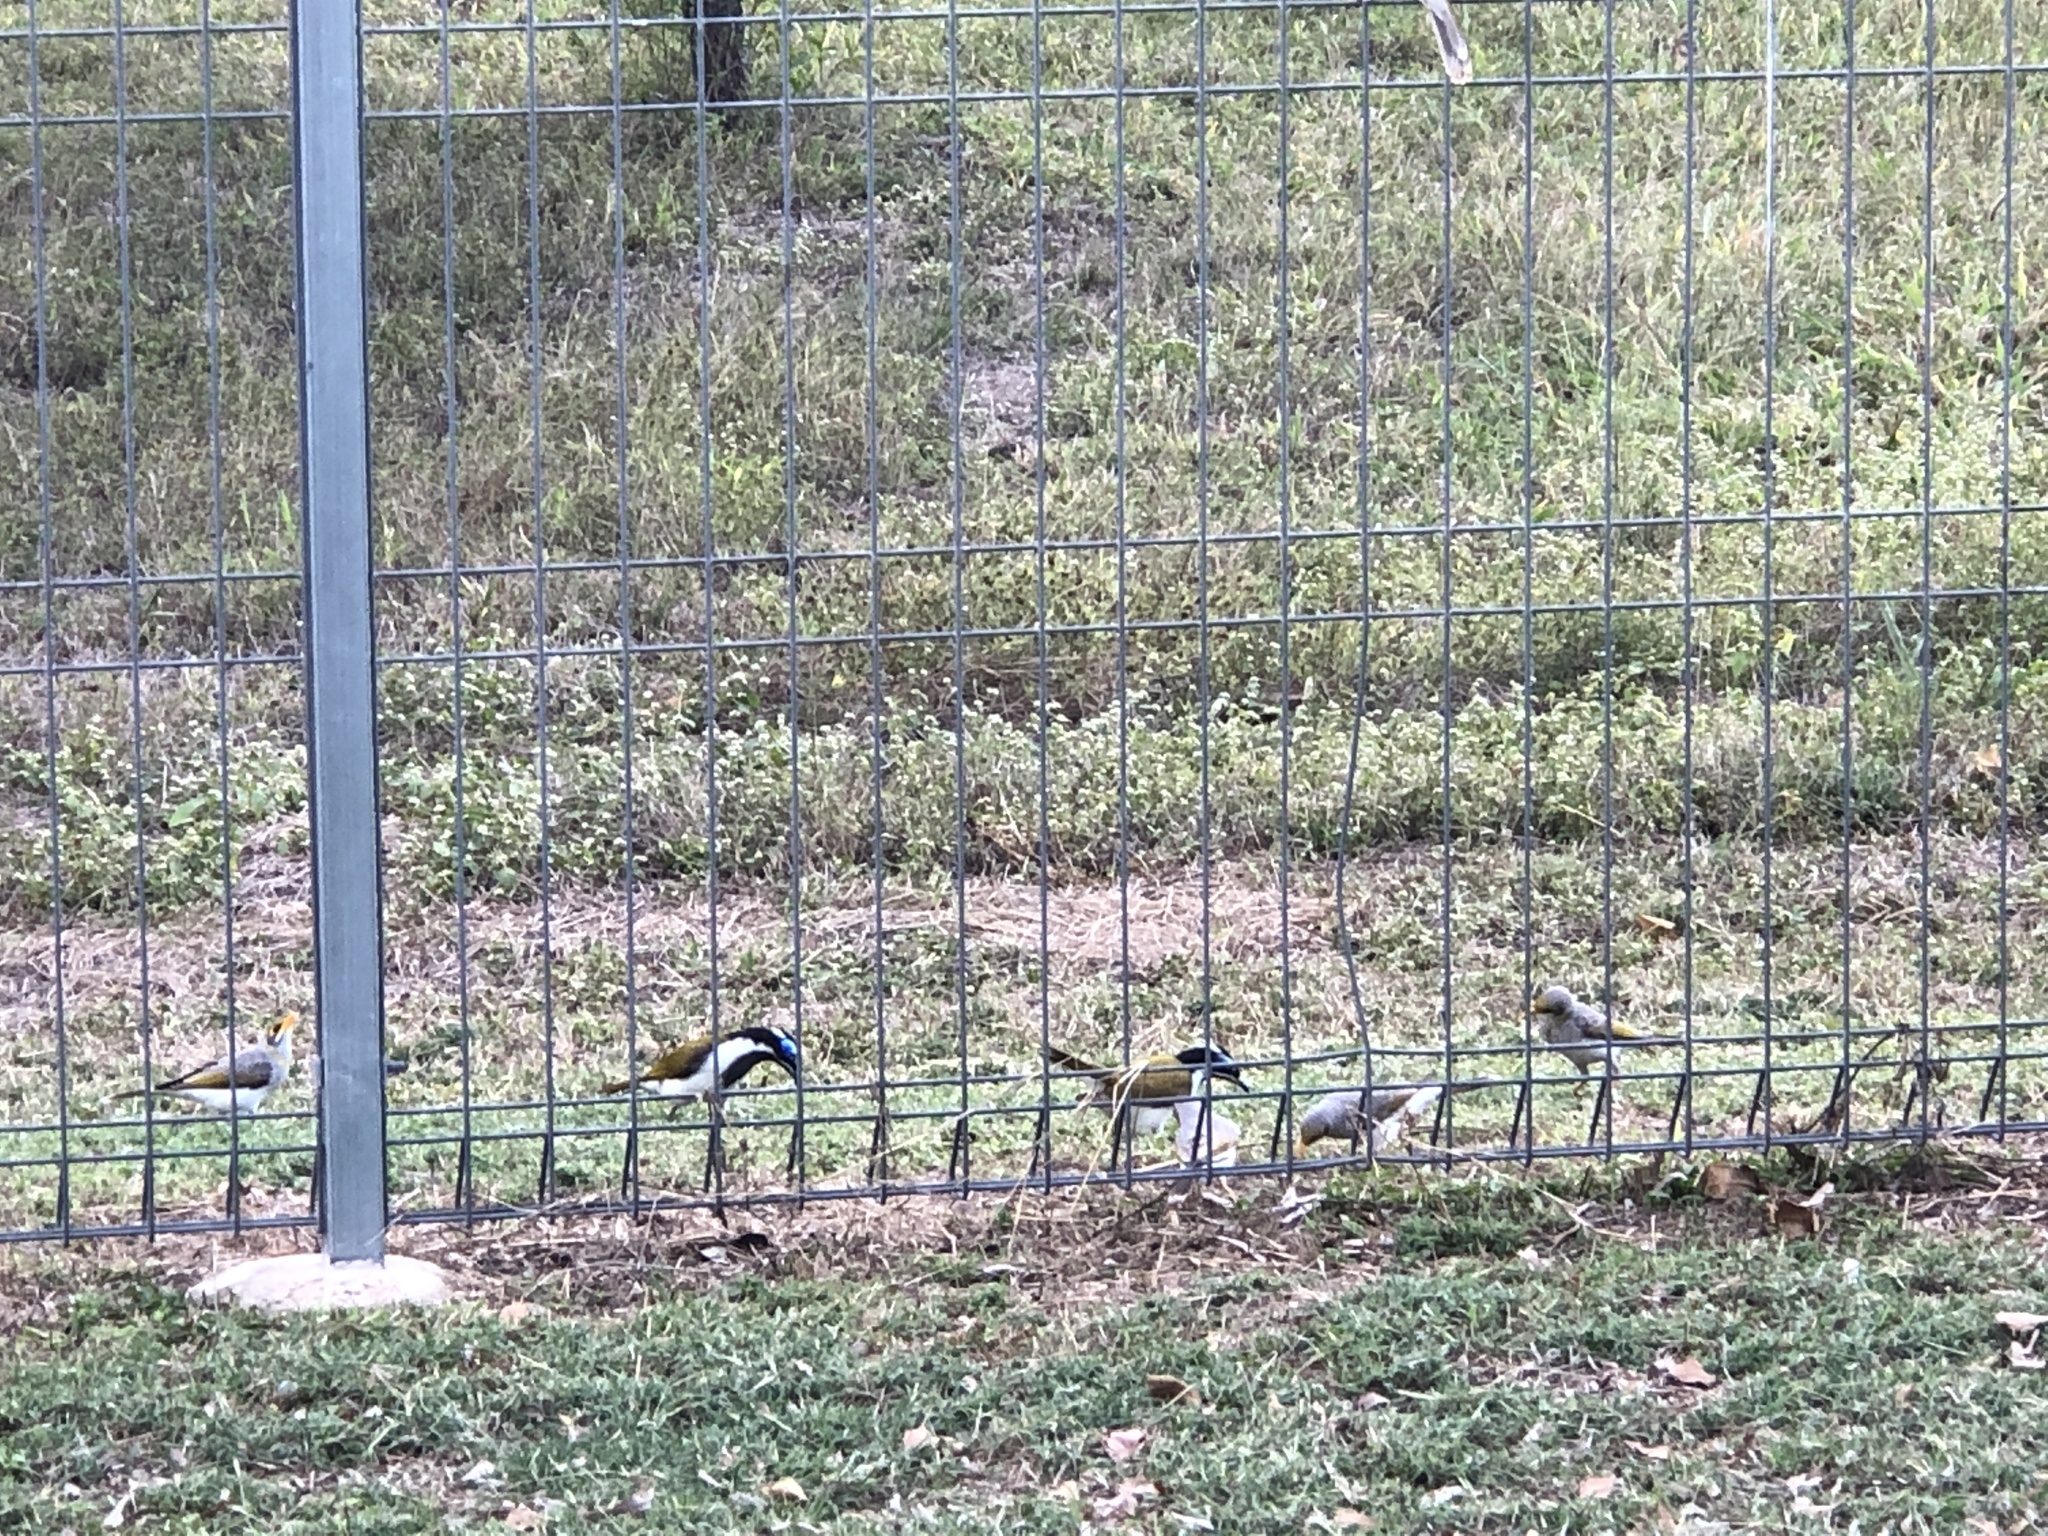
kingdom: Animalia
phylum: Chordata
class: Aves
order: Passeriformes
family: Meliphagidae
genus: Entomyzon
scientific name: Entomyzon cyanotis
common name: Blue-faced honeyeater
